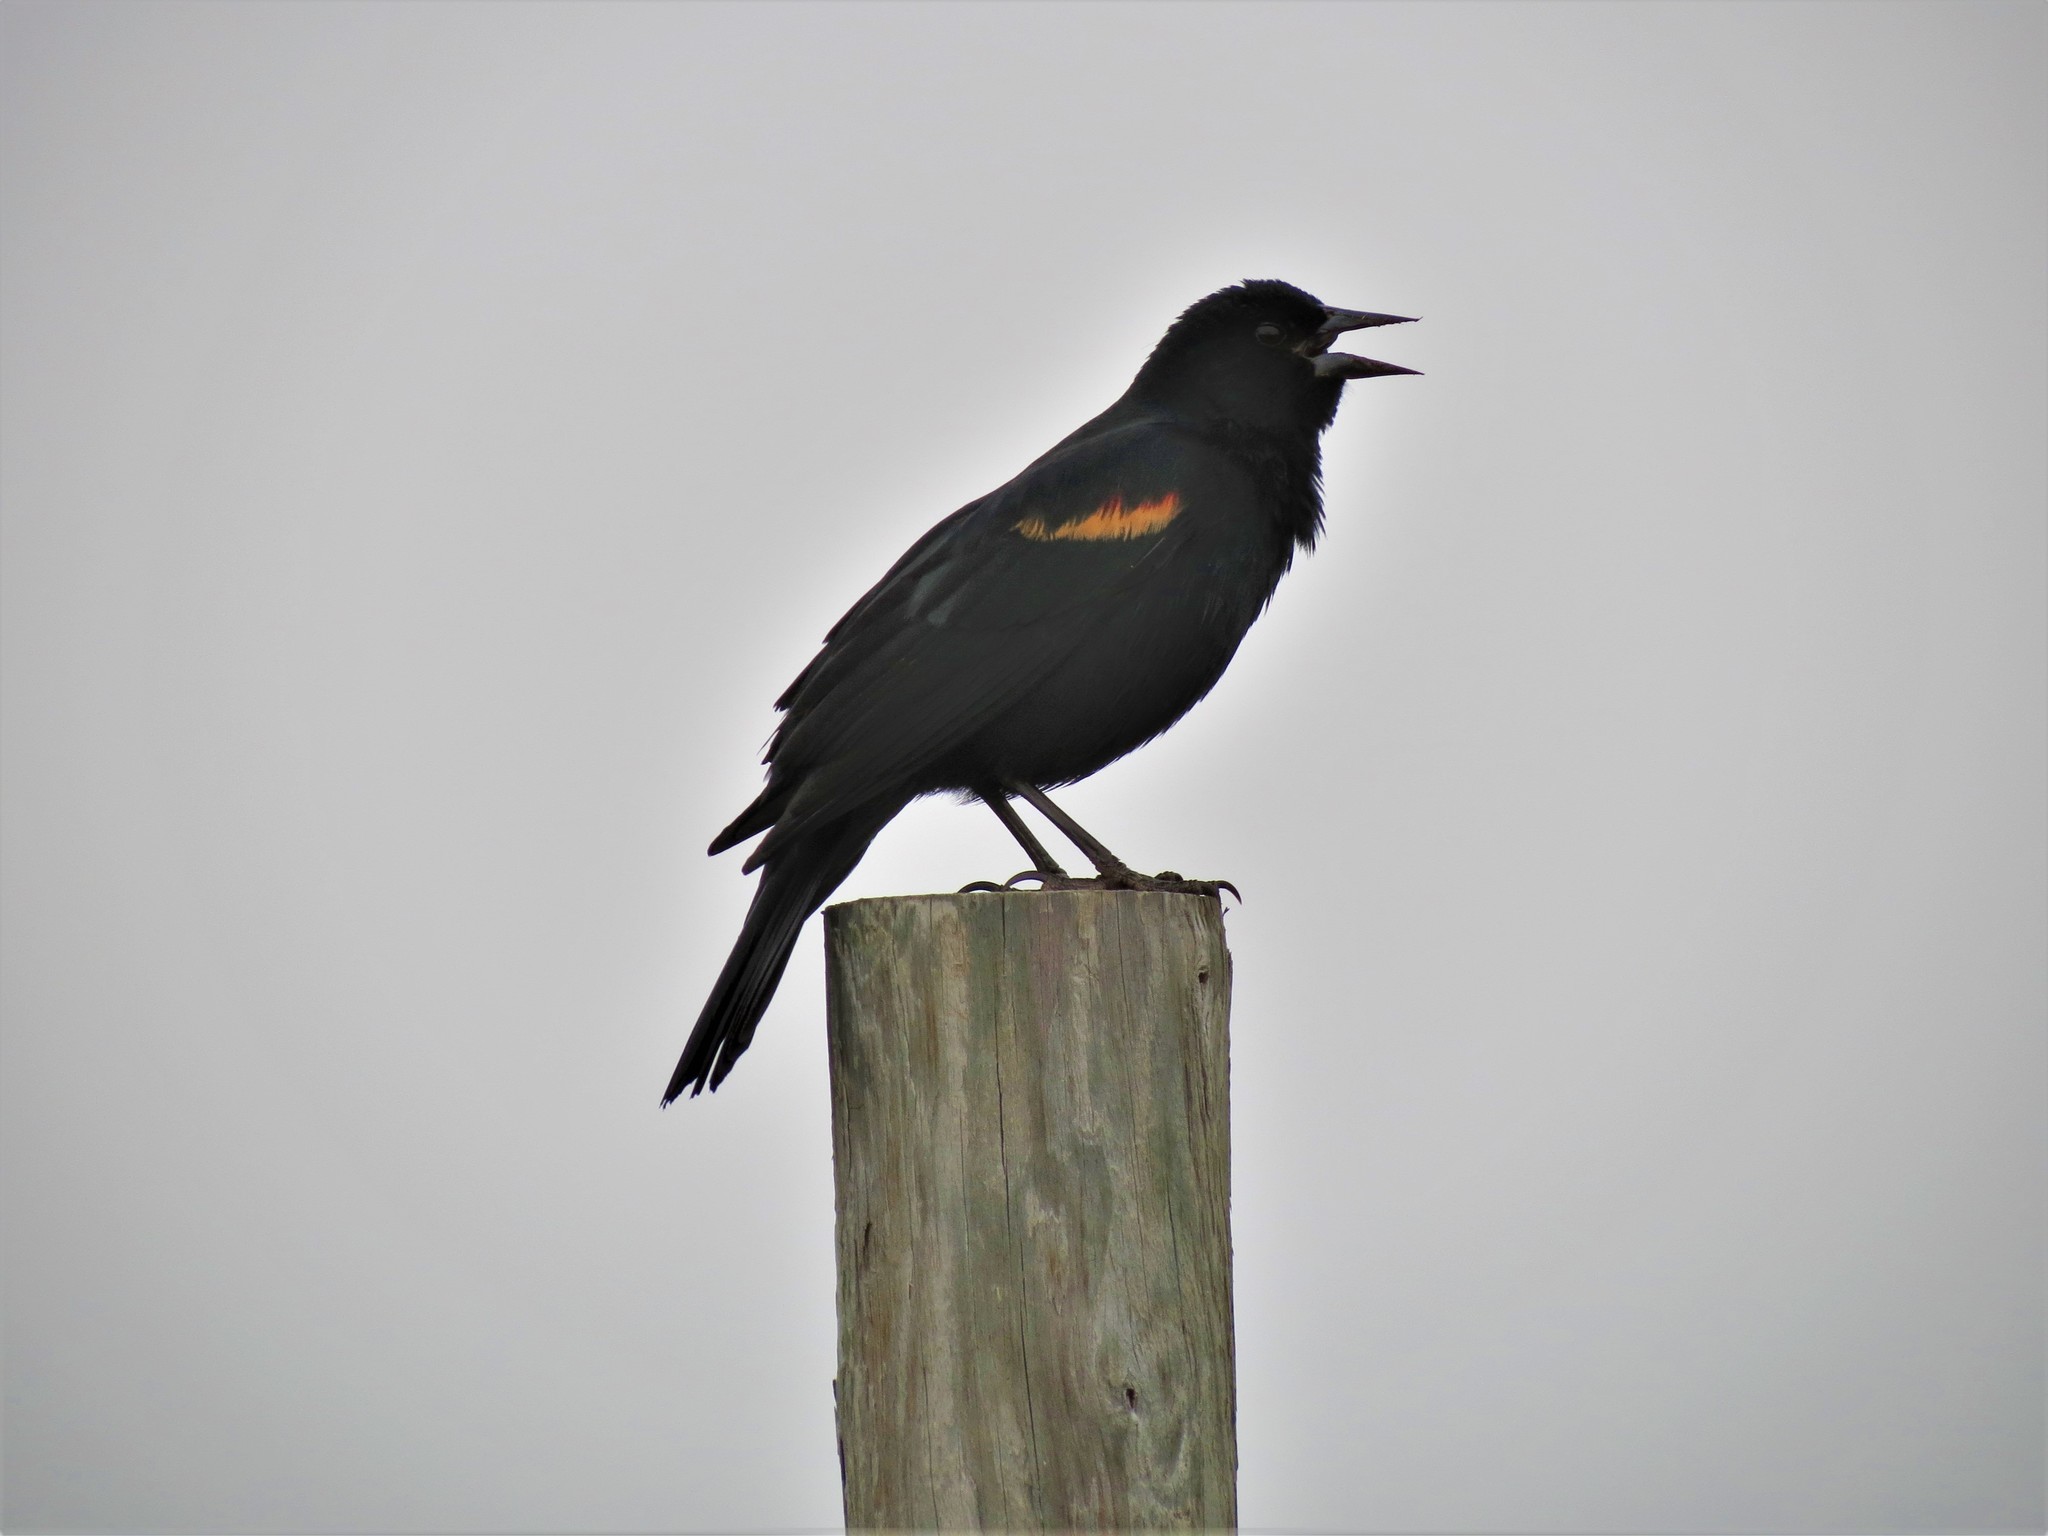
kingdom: Animalia
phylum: Chordata
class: Aves
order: Passeriformes
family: Icteridae
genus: Agelaius
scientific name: Agelaius phoeniceus
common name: Red-winged blackbird
